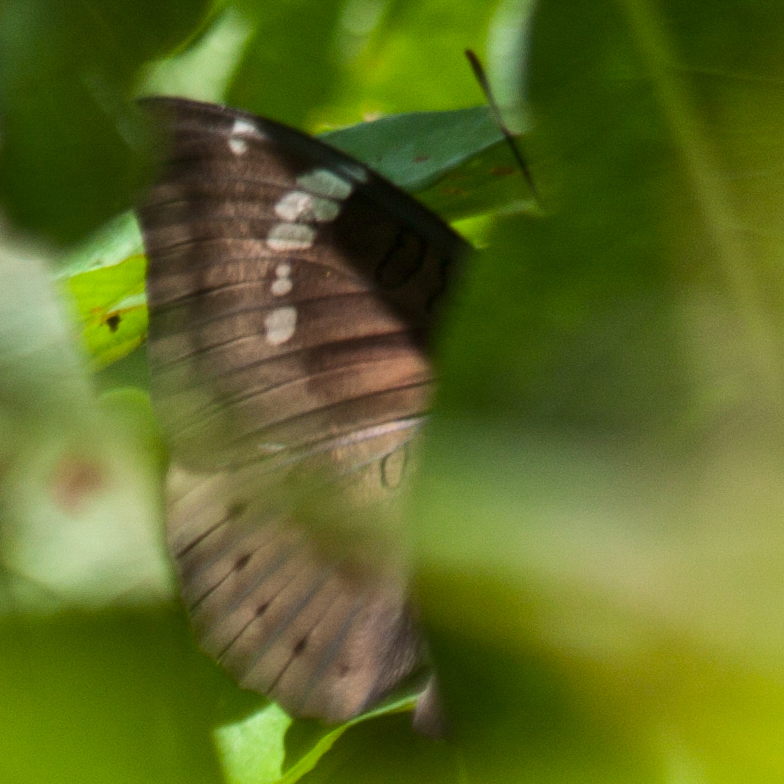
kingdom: Animalia
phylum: Arthropoda
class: Insecta
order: Lepidoptera
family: Nymphalidae
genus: Euthalia
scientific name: Euthalia aconthea
